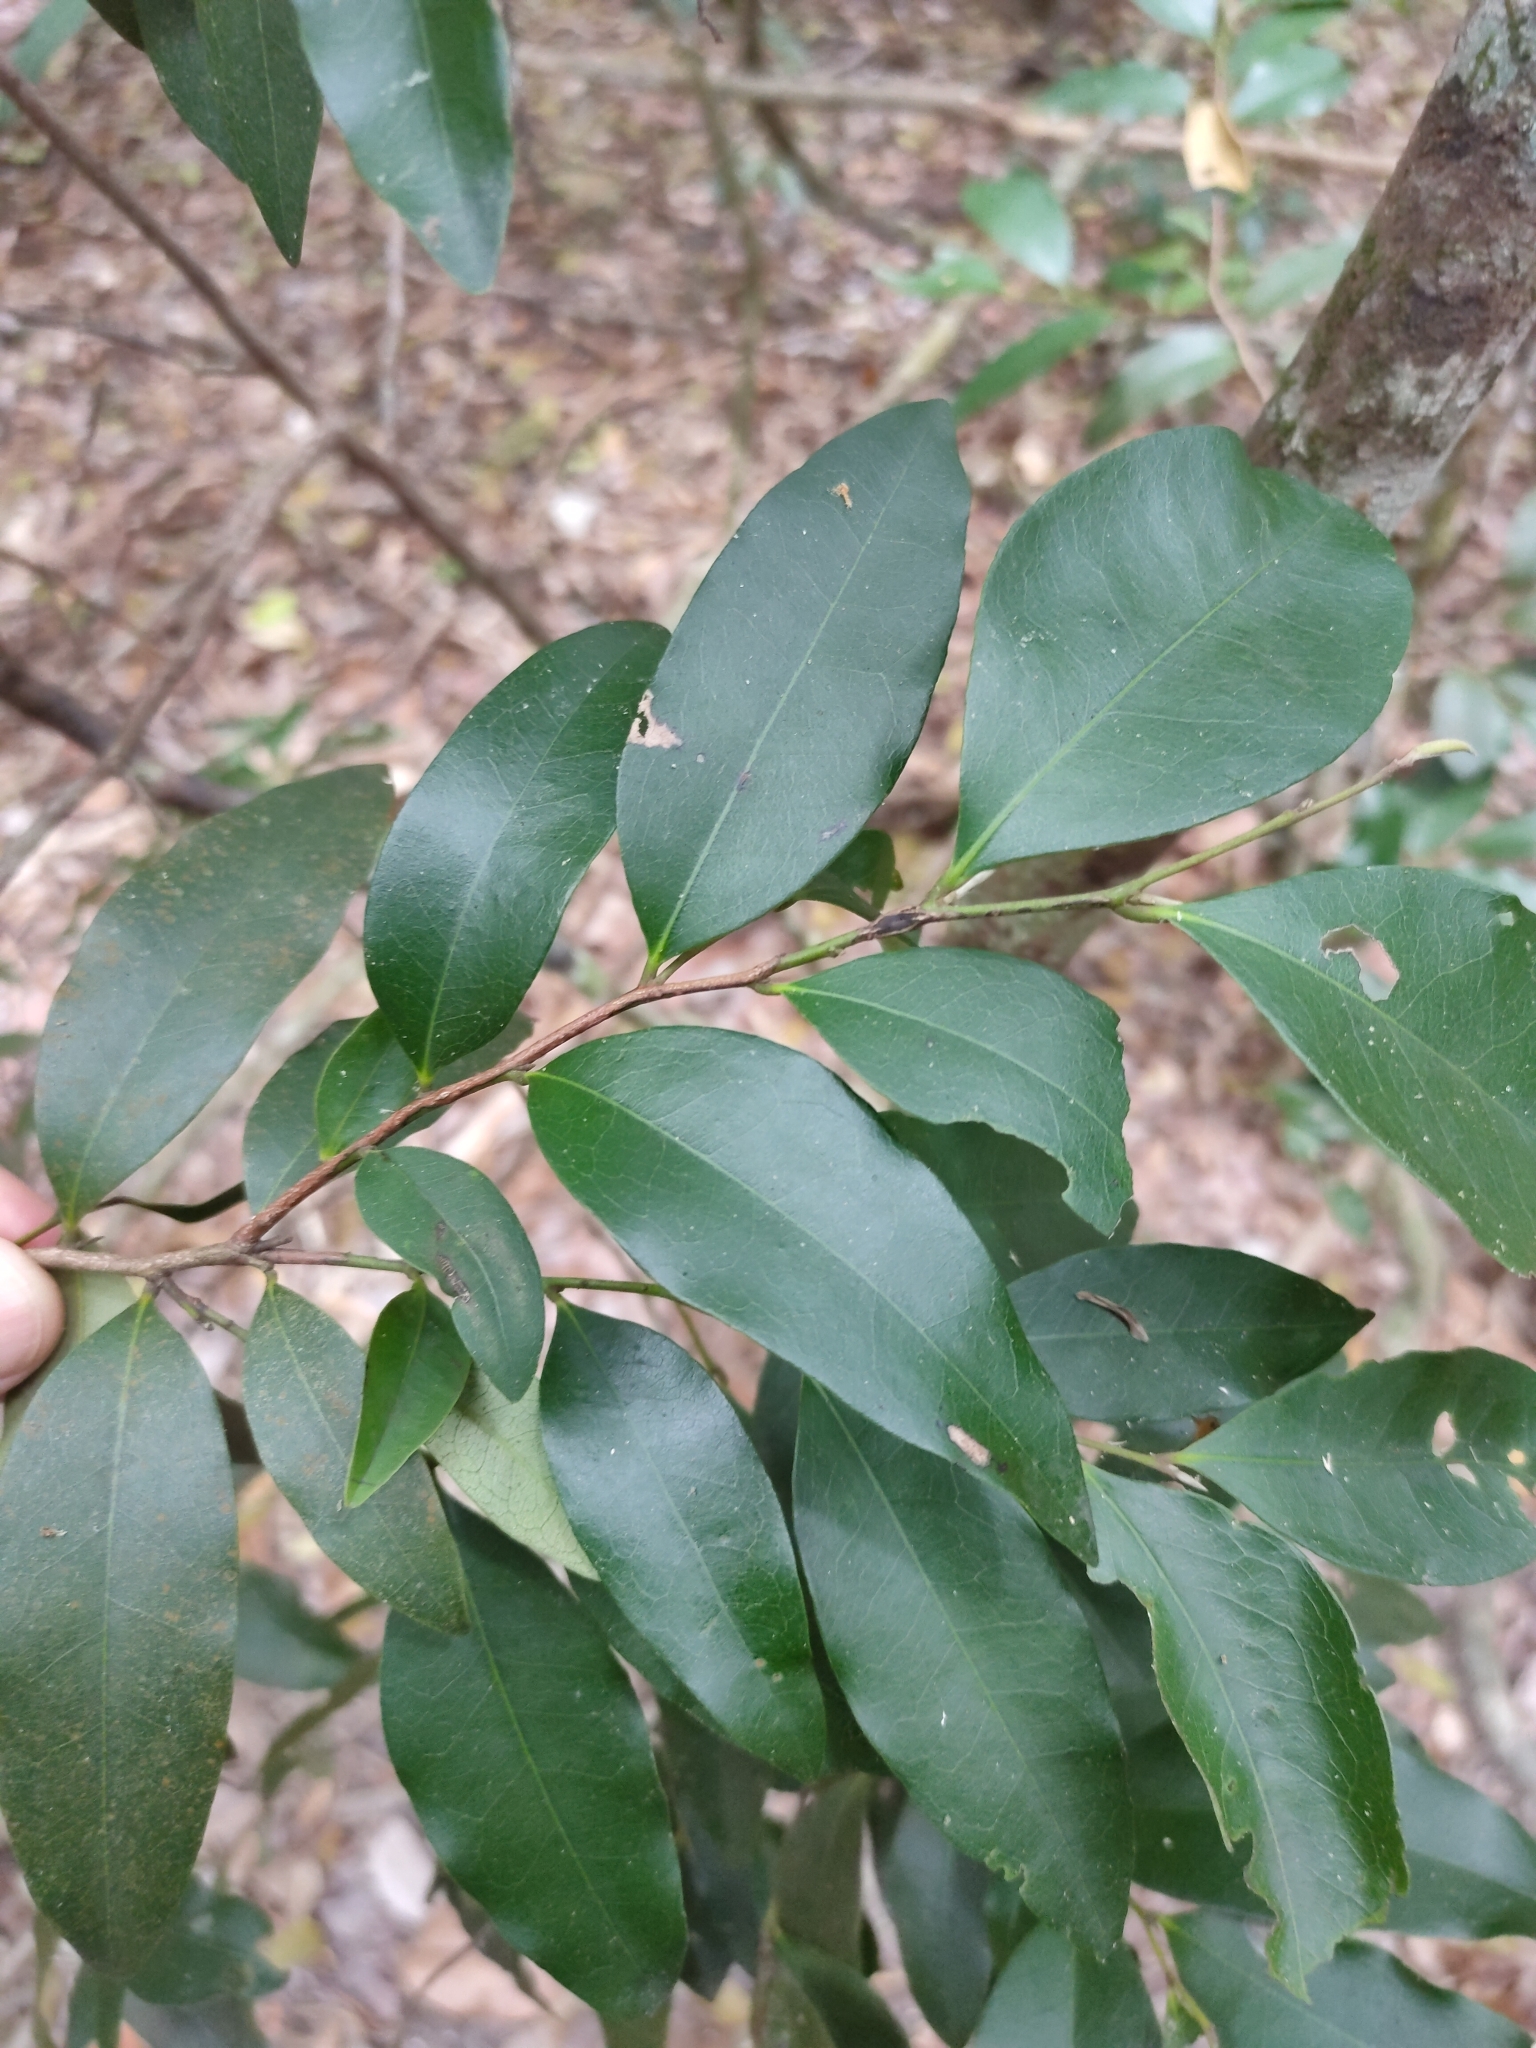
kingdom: Plantae
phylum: Tracheophyta
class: Magnoliopsida
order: Ericales
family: Ebenaceae
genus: Diospyros
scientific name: Diospyros pentamera
